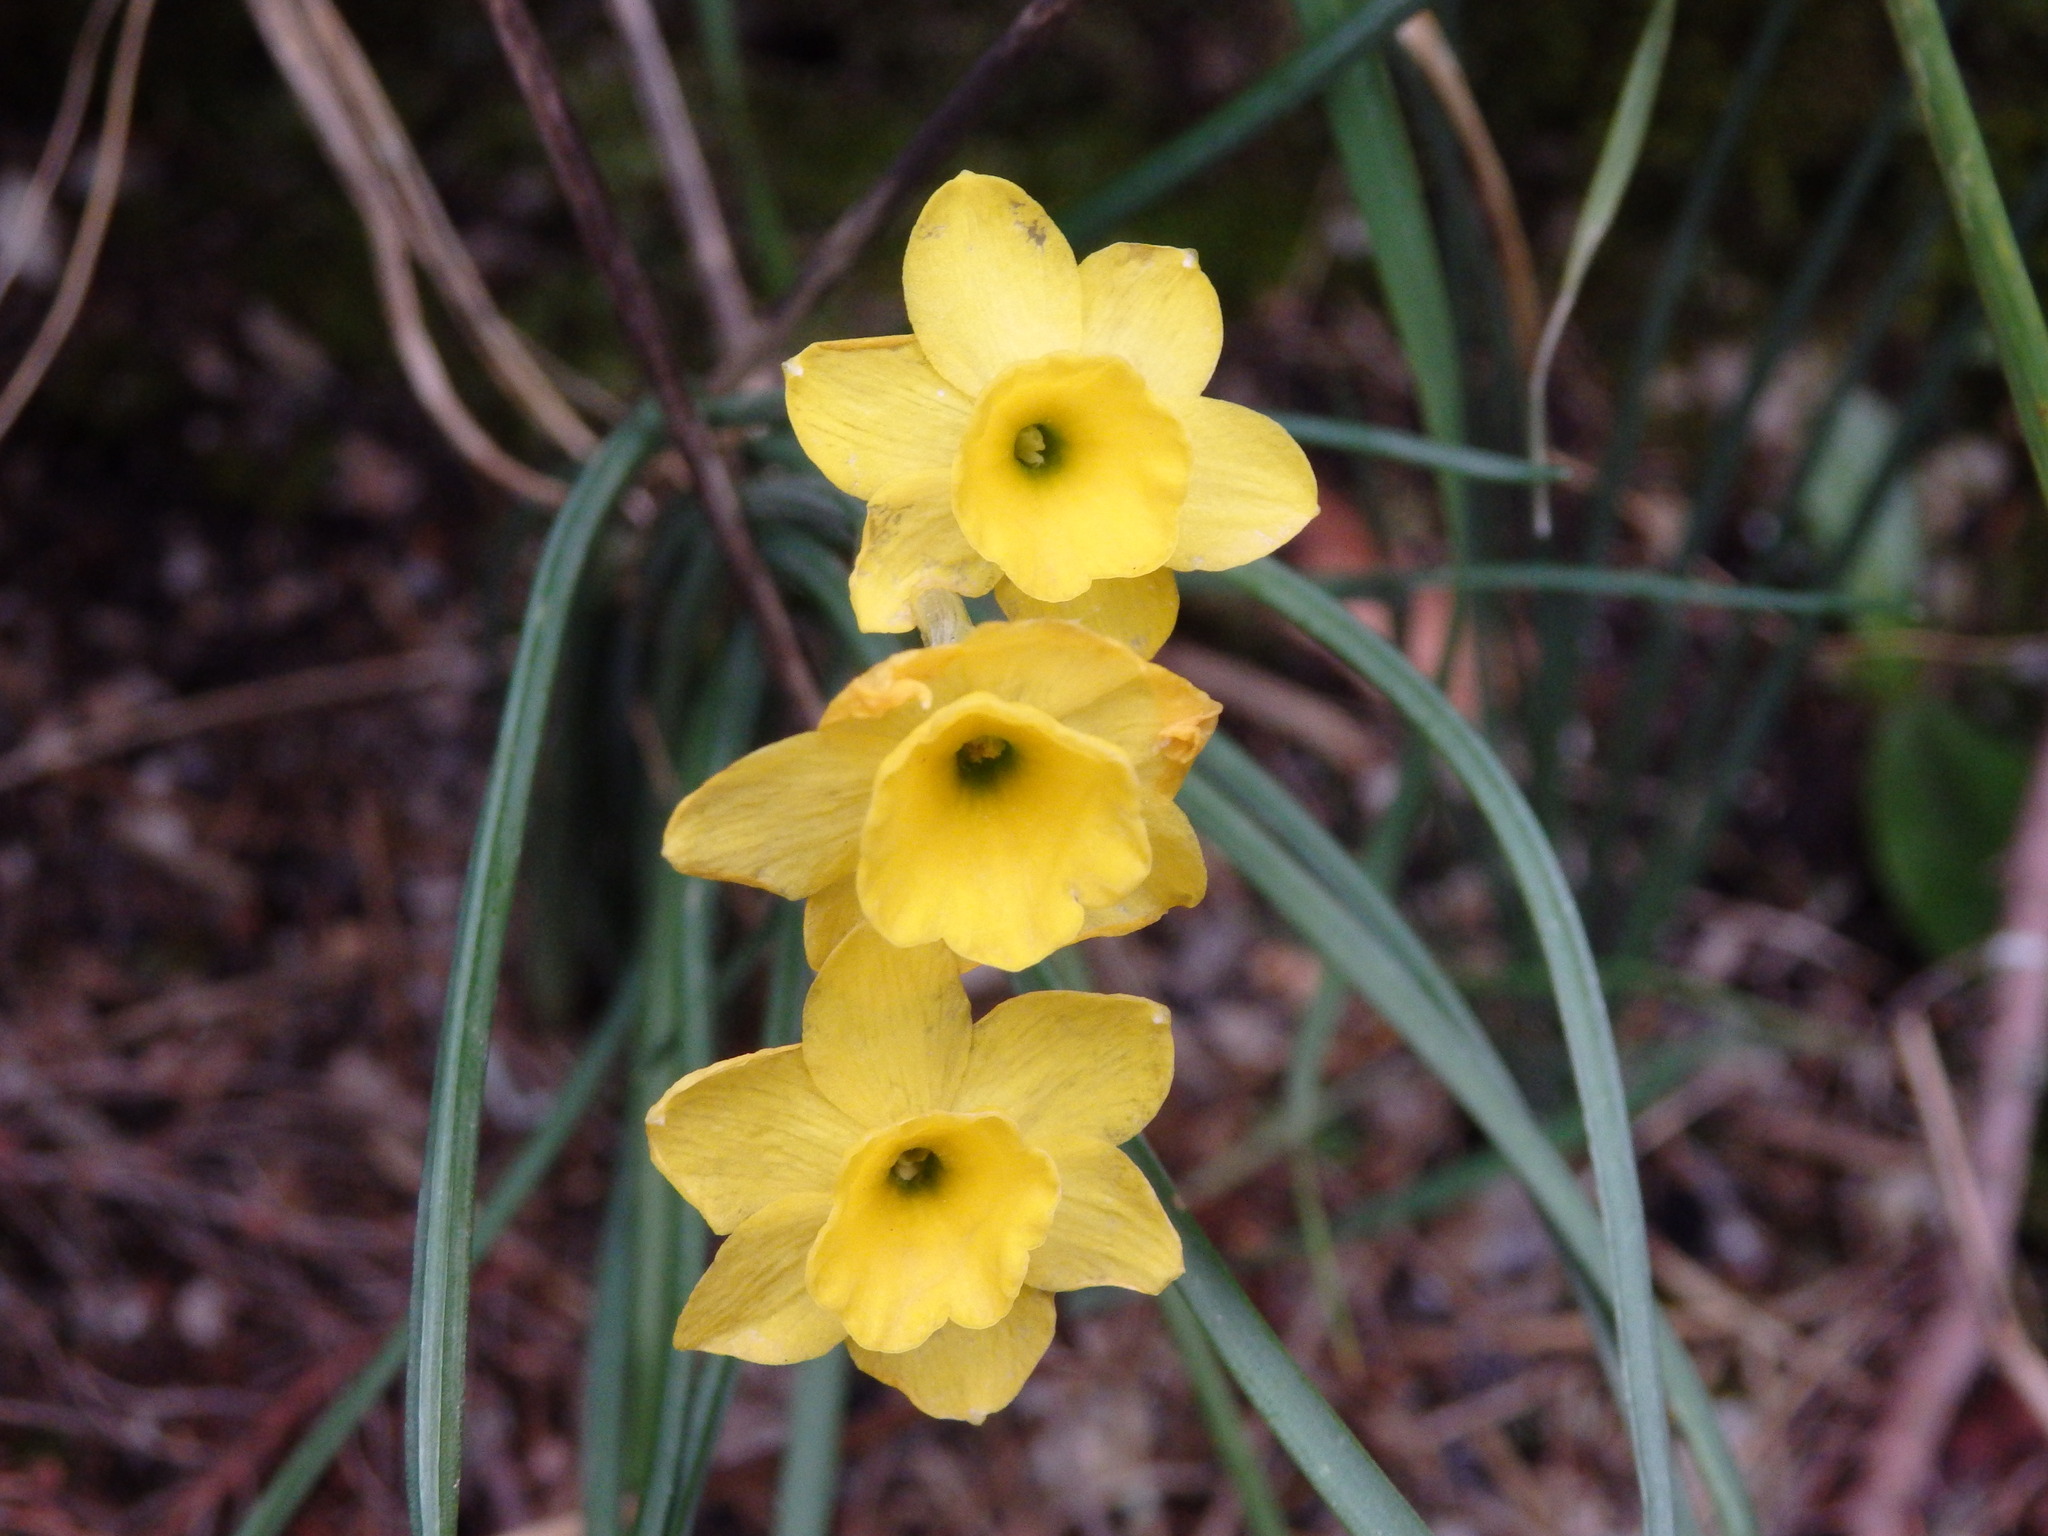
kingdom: Plantae
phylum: Tracheophyta
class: Liliopsida
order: Asparagales
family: Amaryllidaceae
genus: Narcissus
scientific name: Narcissus rupicola
